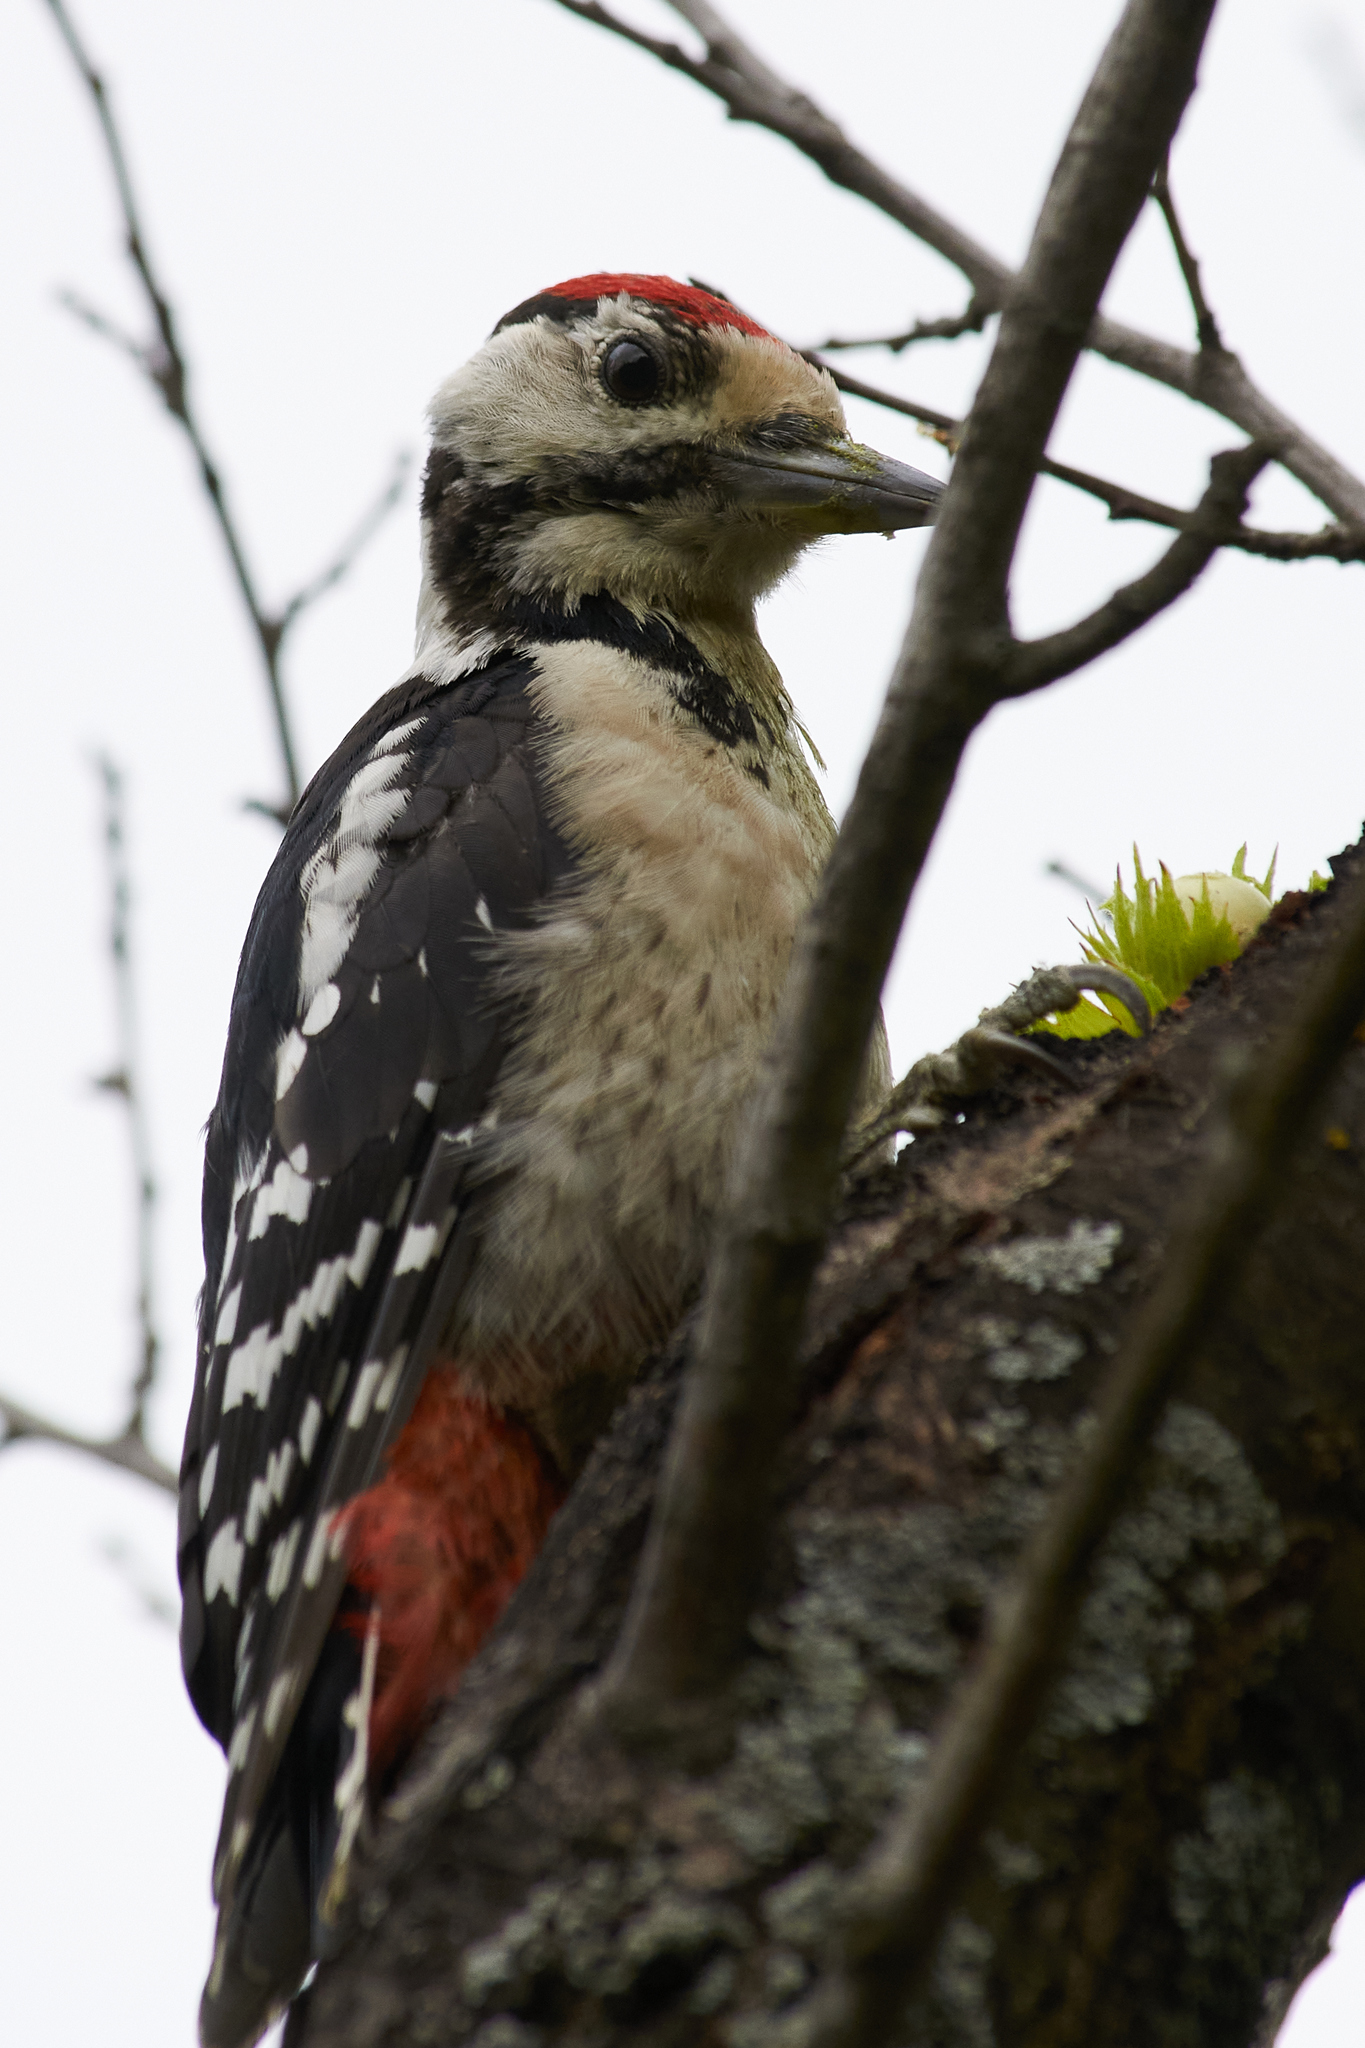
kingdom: Animalia
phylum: Chordata
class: Aves
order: Piciformes
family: Picidae
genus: Dendrocopos
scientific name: Dendrocopos major
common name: Great spotted woodpecker
